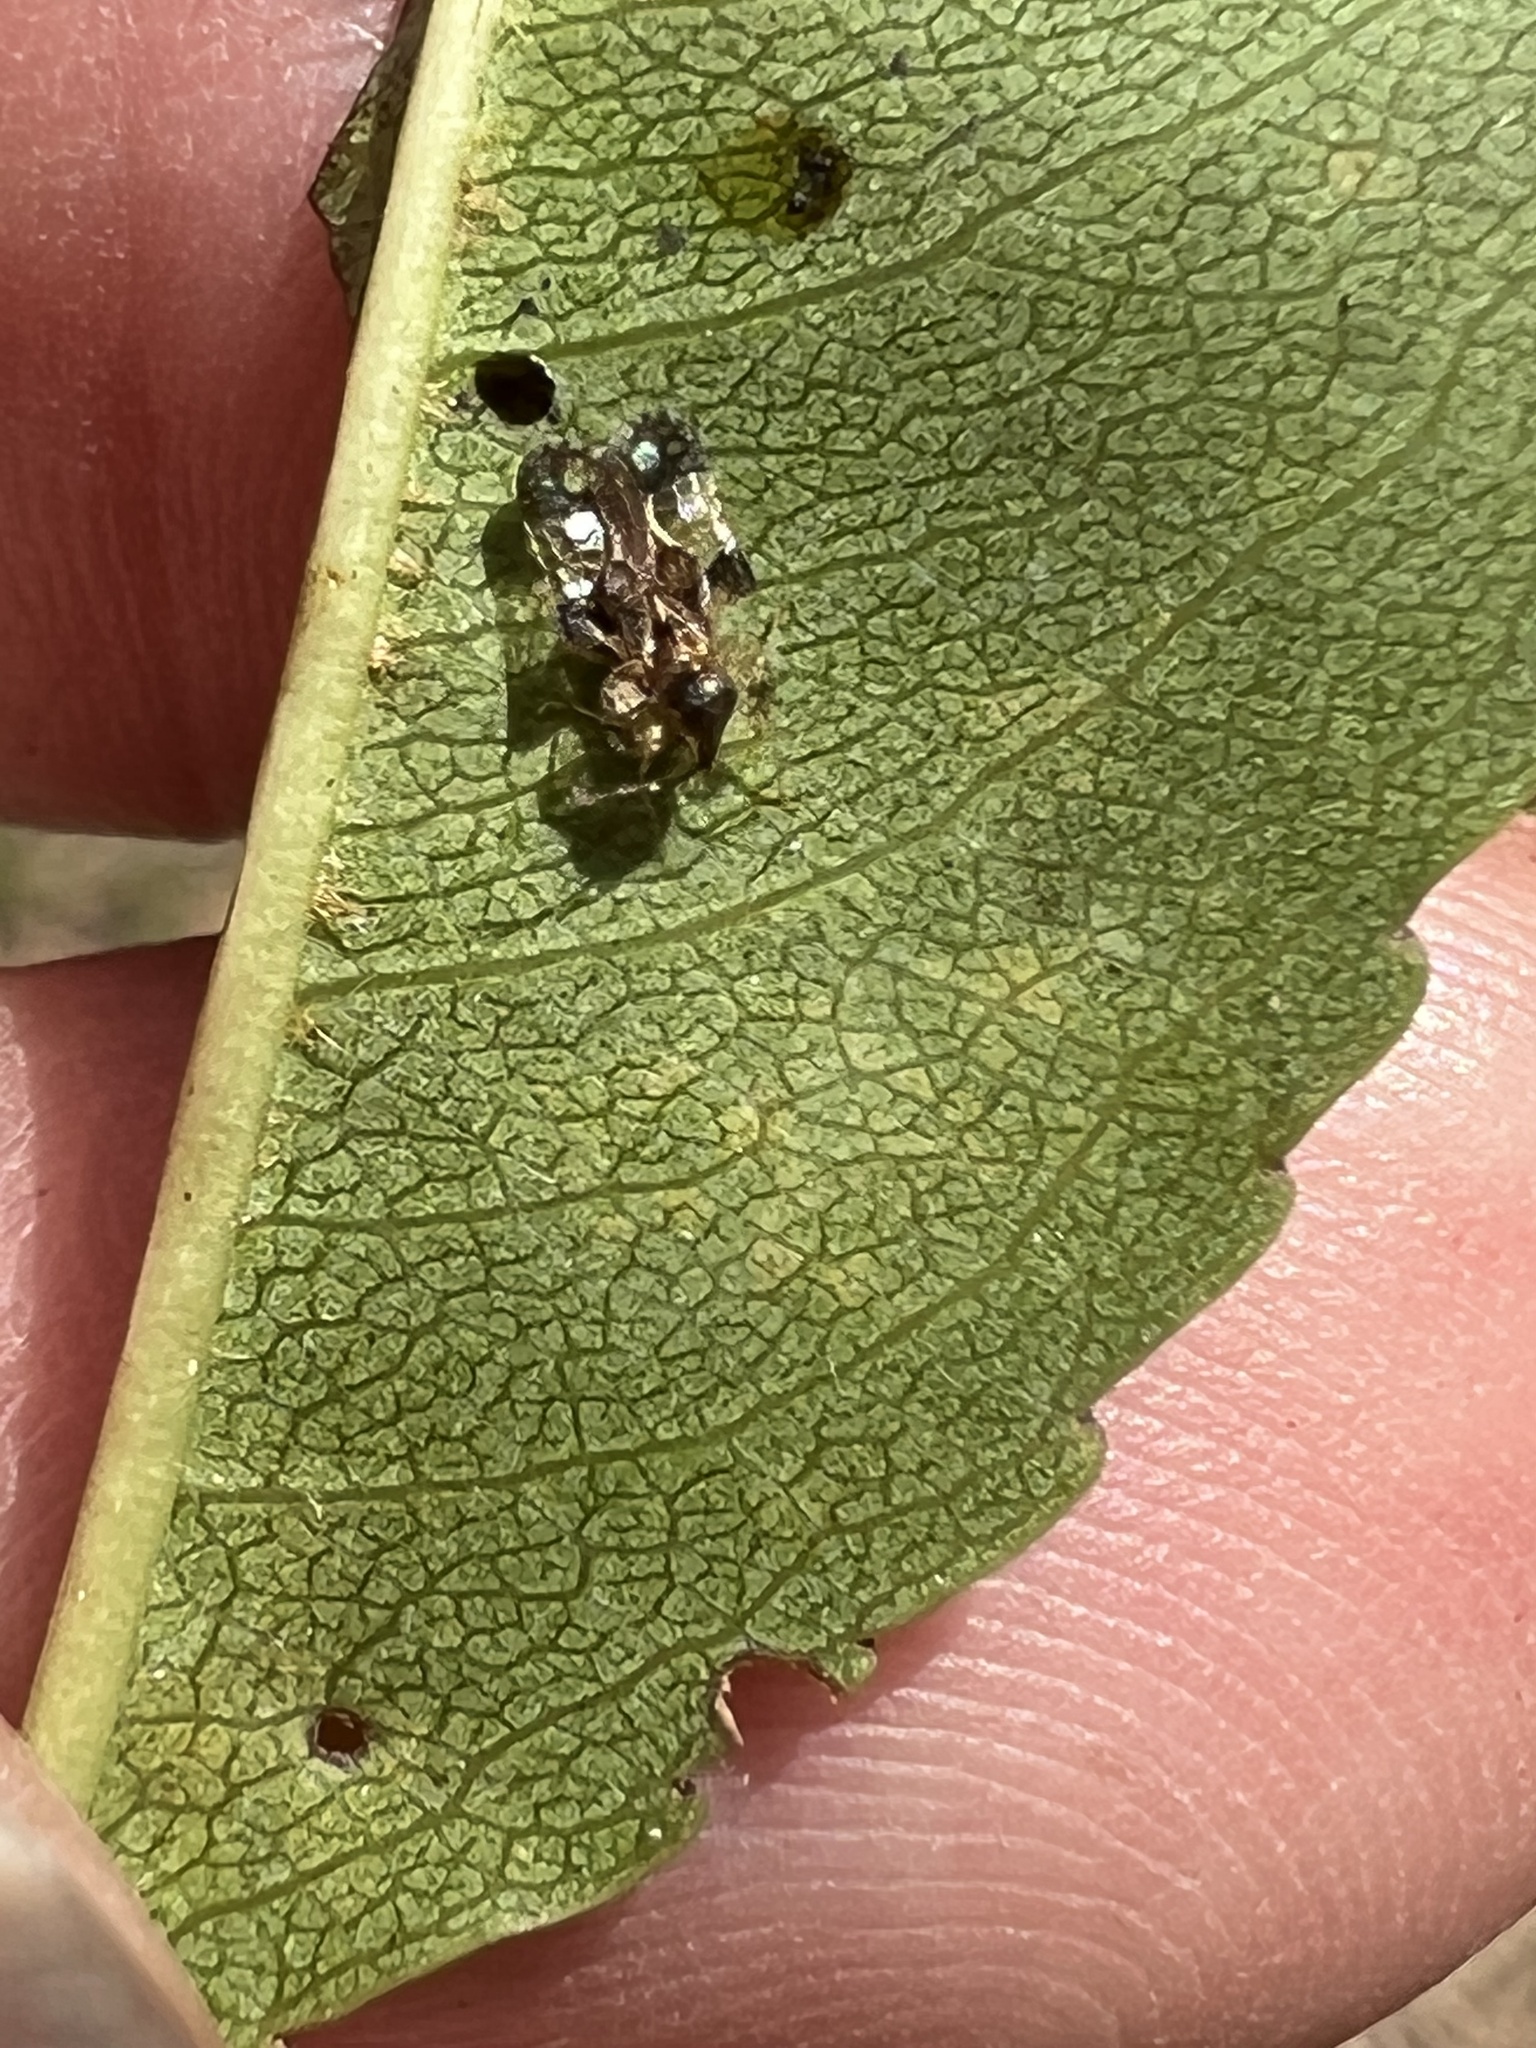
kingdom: Animalia
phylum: Arthropoda
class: Insecta
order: Hemiptera
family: Tingidae
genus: Corythucha
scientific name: Corythucha pruni
